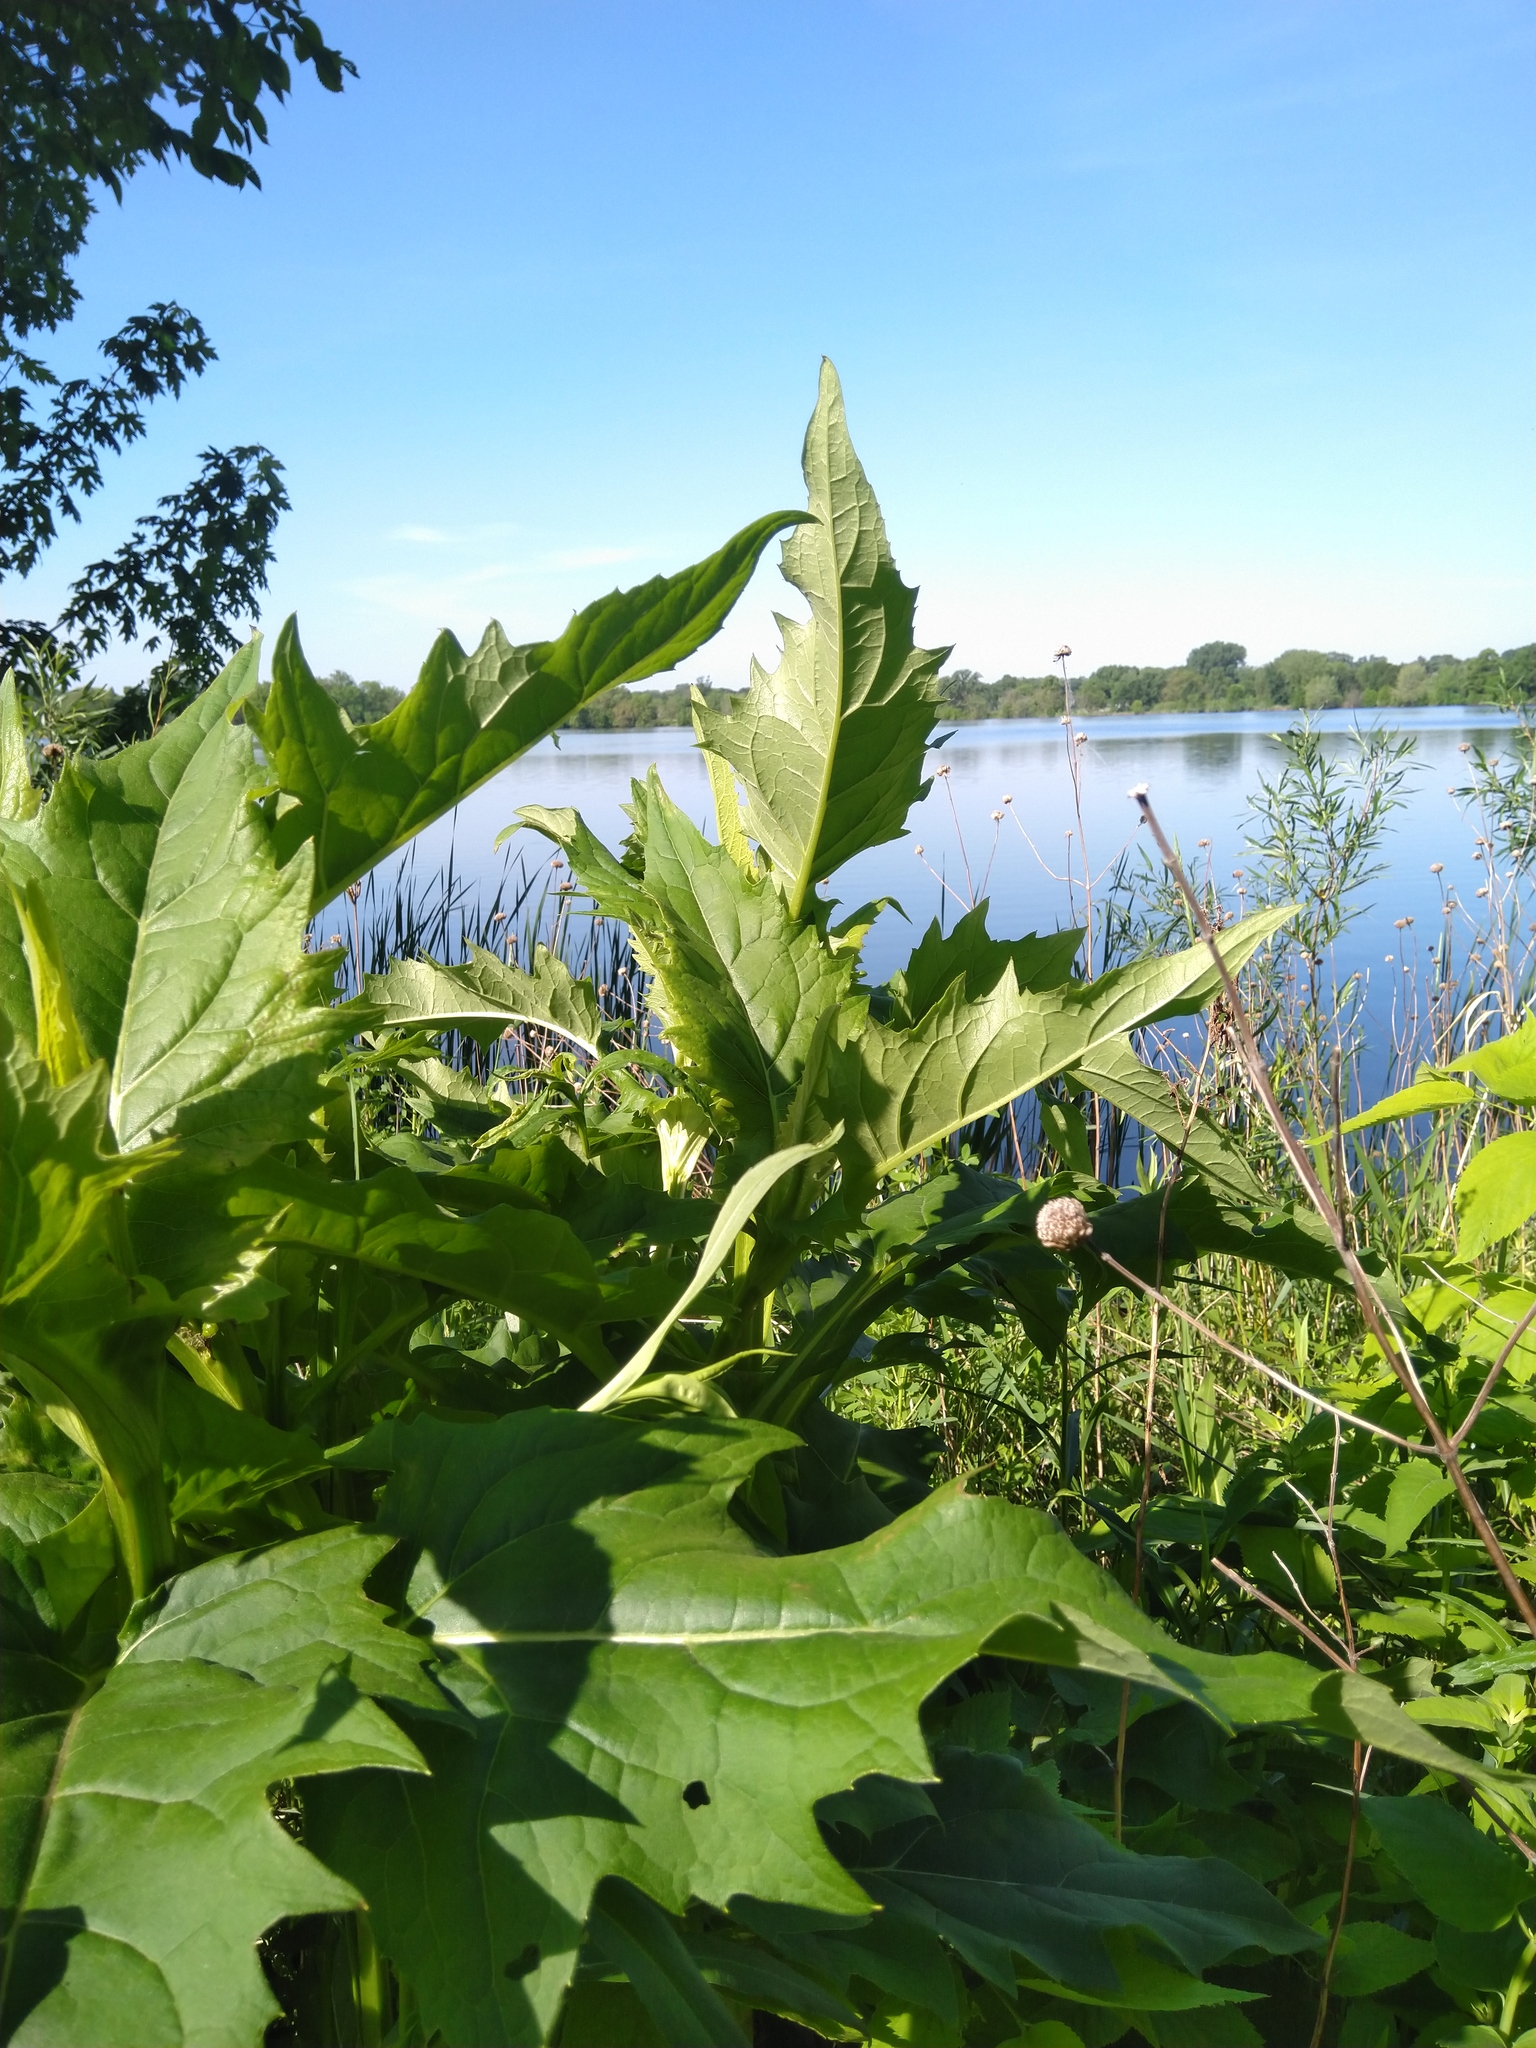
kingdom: Plantae
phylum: Tracheophyta
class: Magnoliopsida
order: Asterales
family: Asteraceae
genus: Silphium
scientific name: Silphium perfoliatum
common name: Cup-plant
